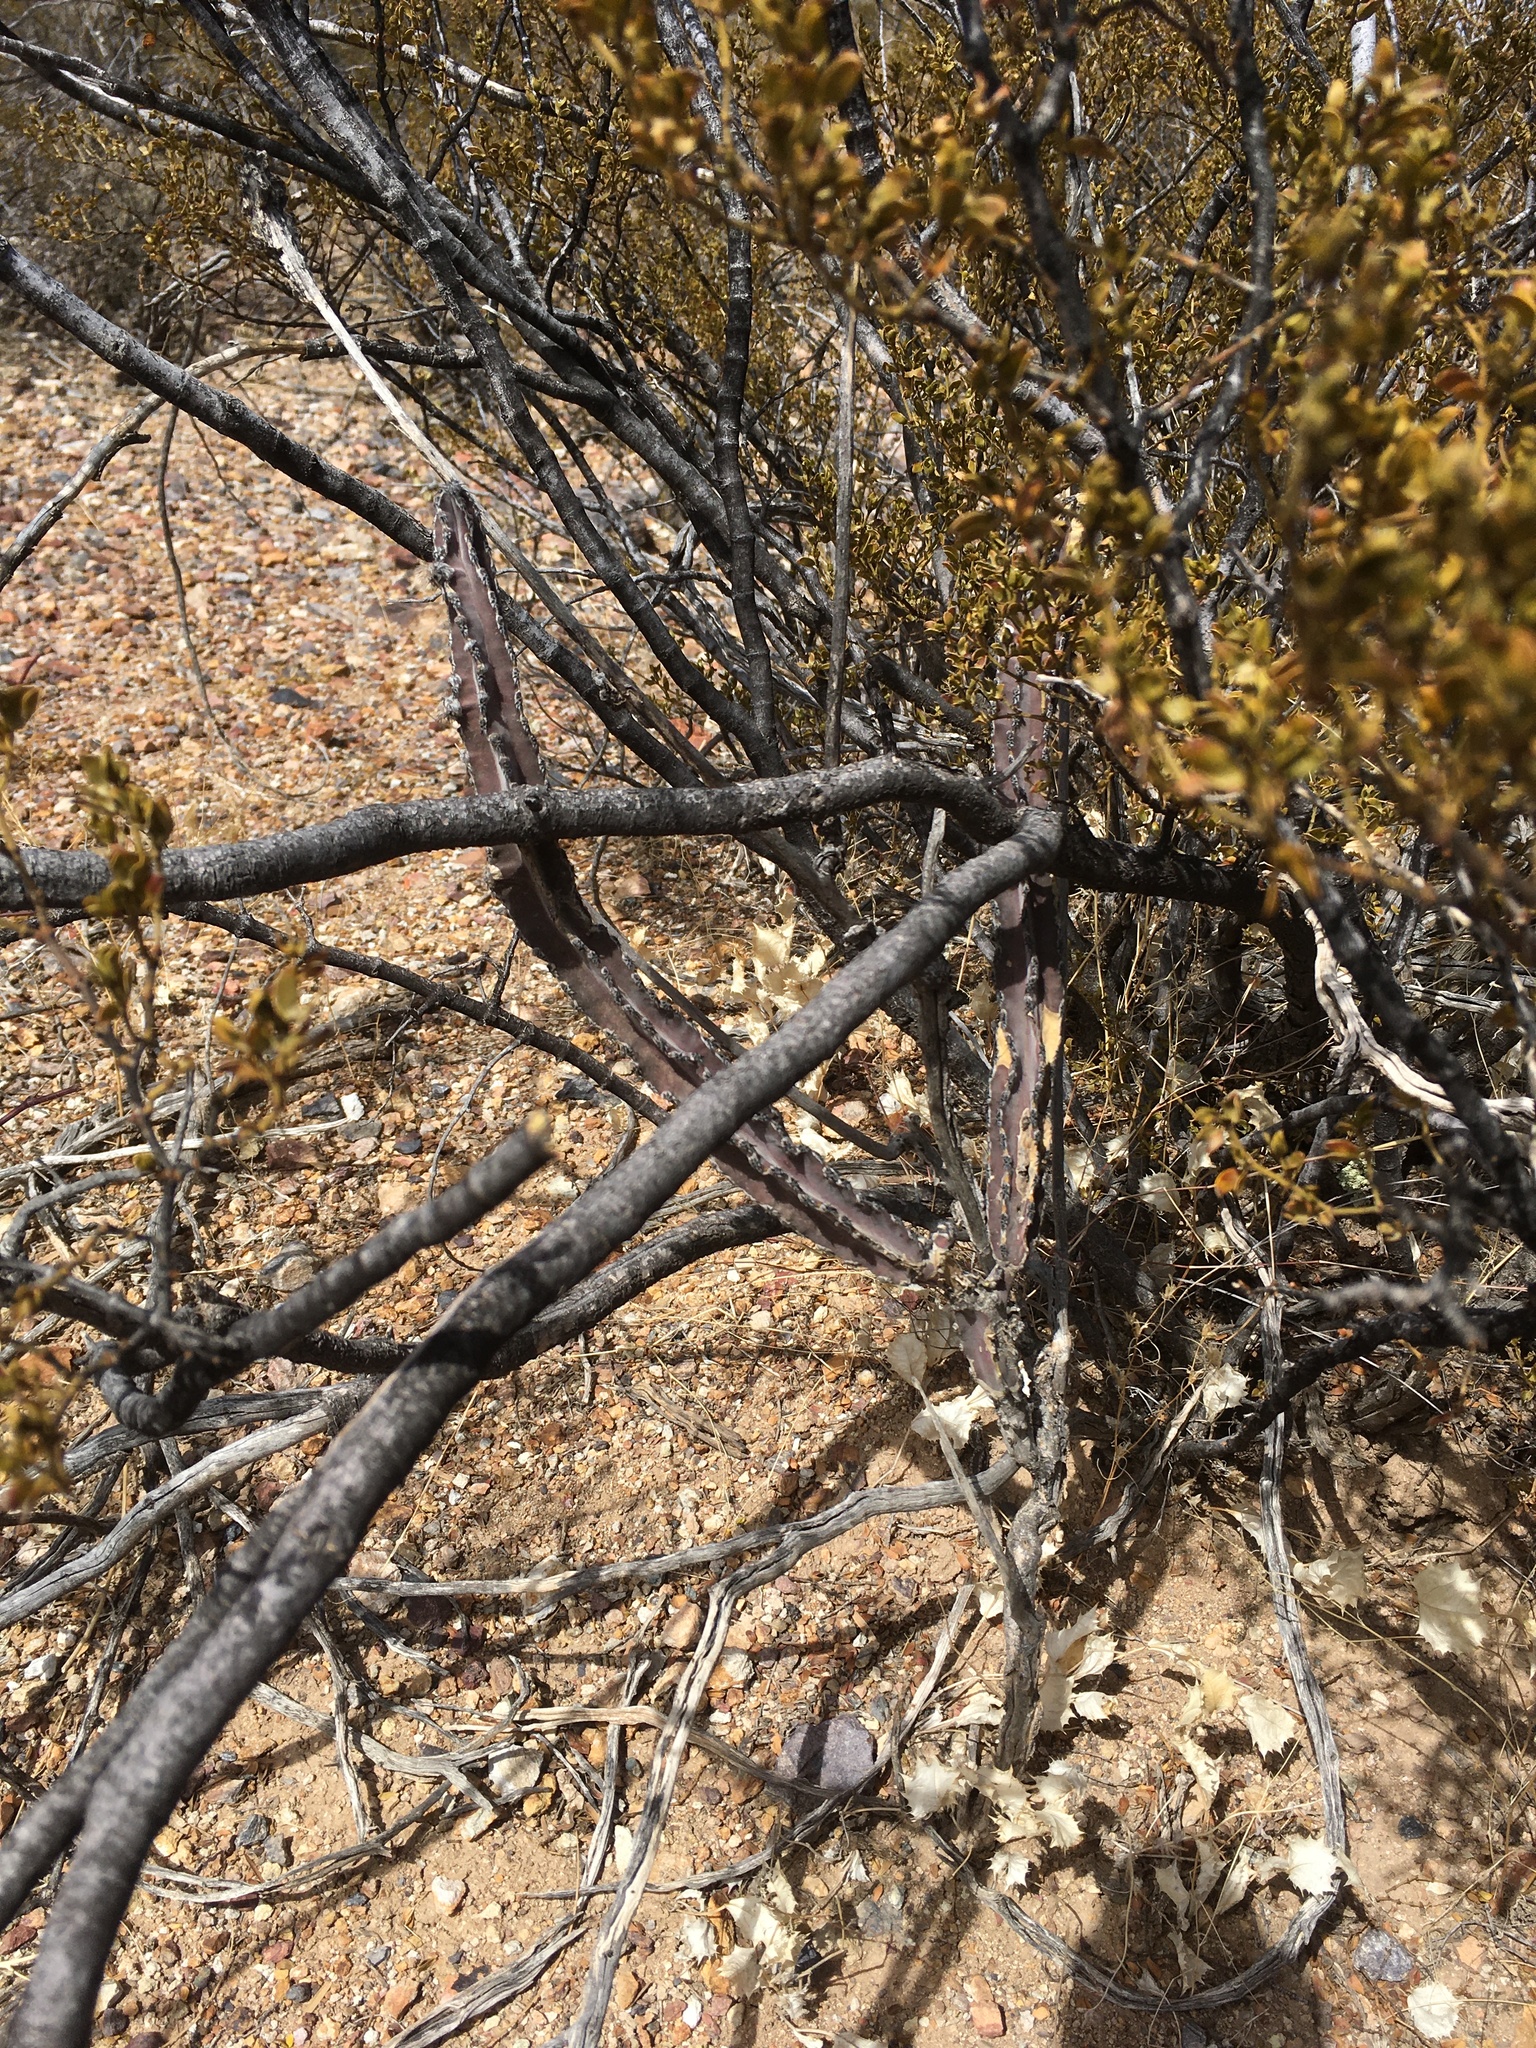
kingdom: Plantae
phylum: Tracheophyta
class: Magnoliopsida
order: Caryophyllales
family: Cactaceae
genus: Peniocereus
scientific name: Peniocereus greggii
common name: Desert night-blooming cereus
